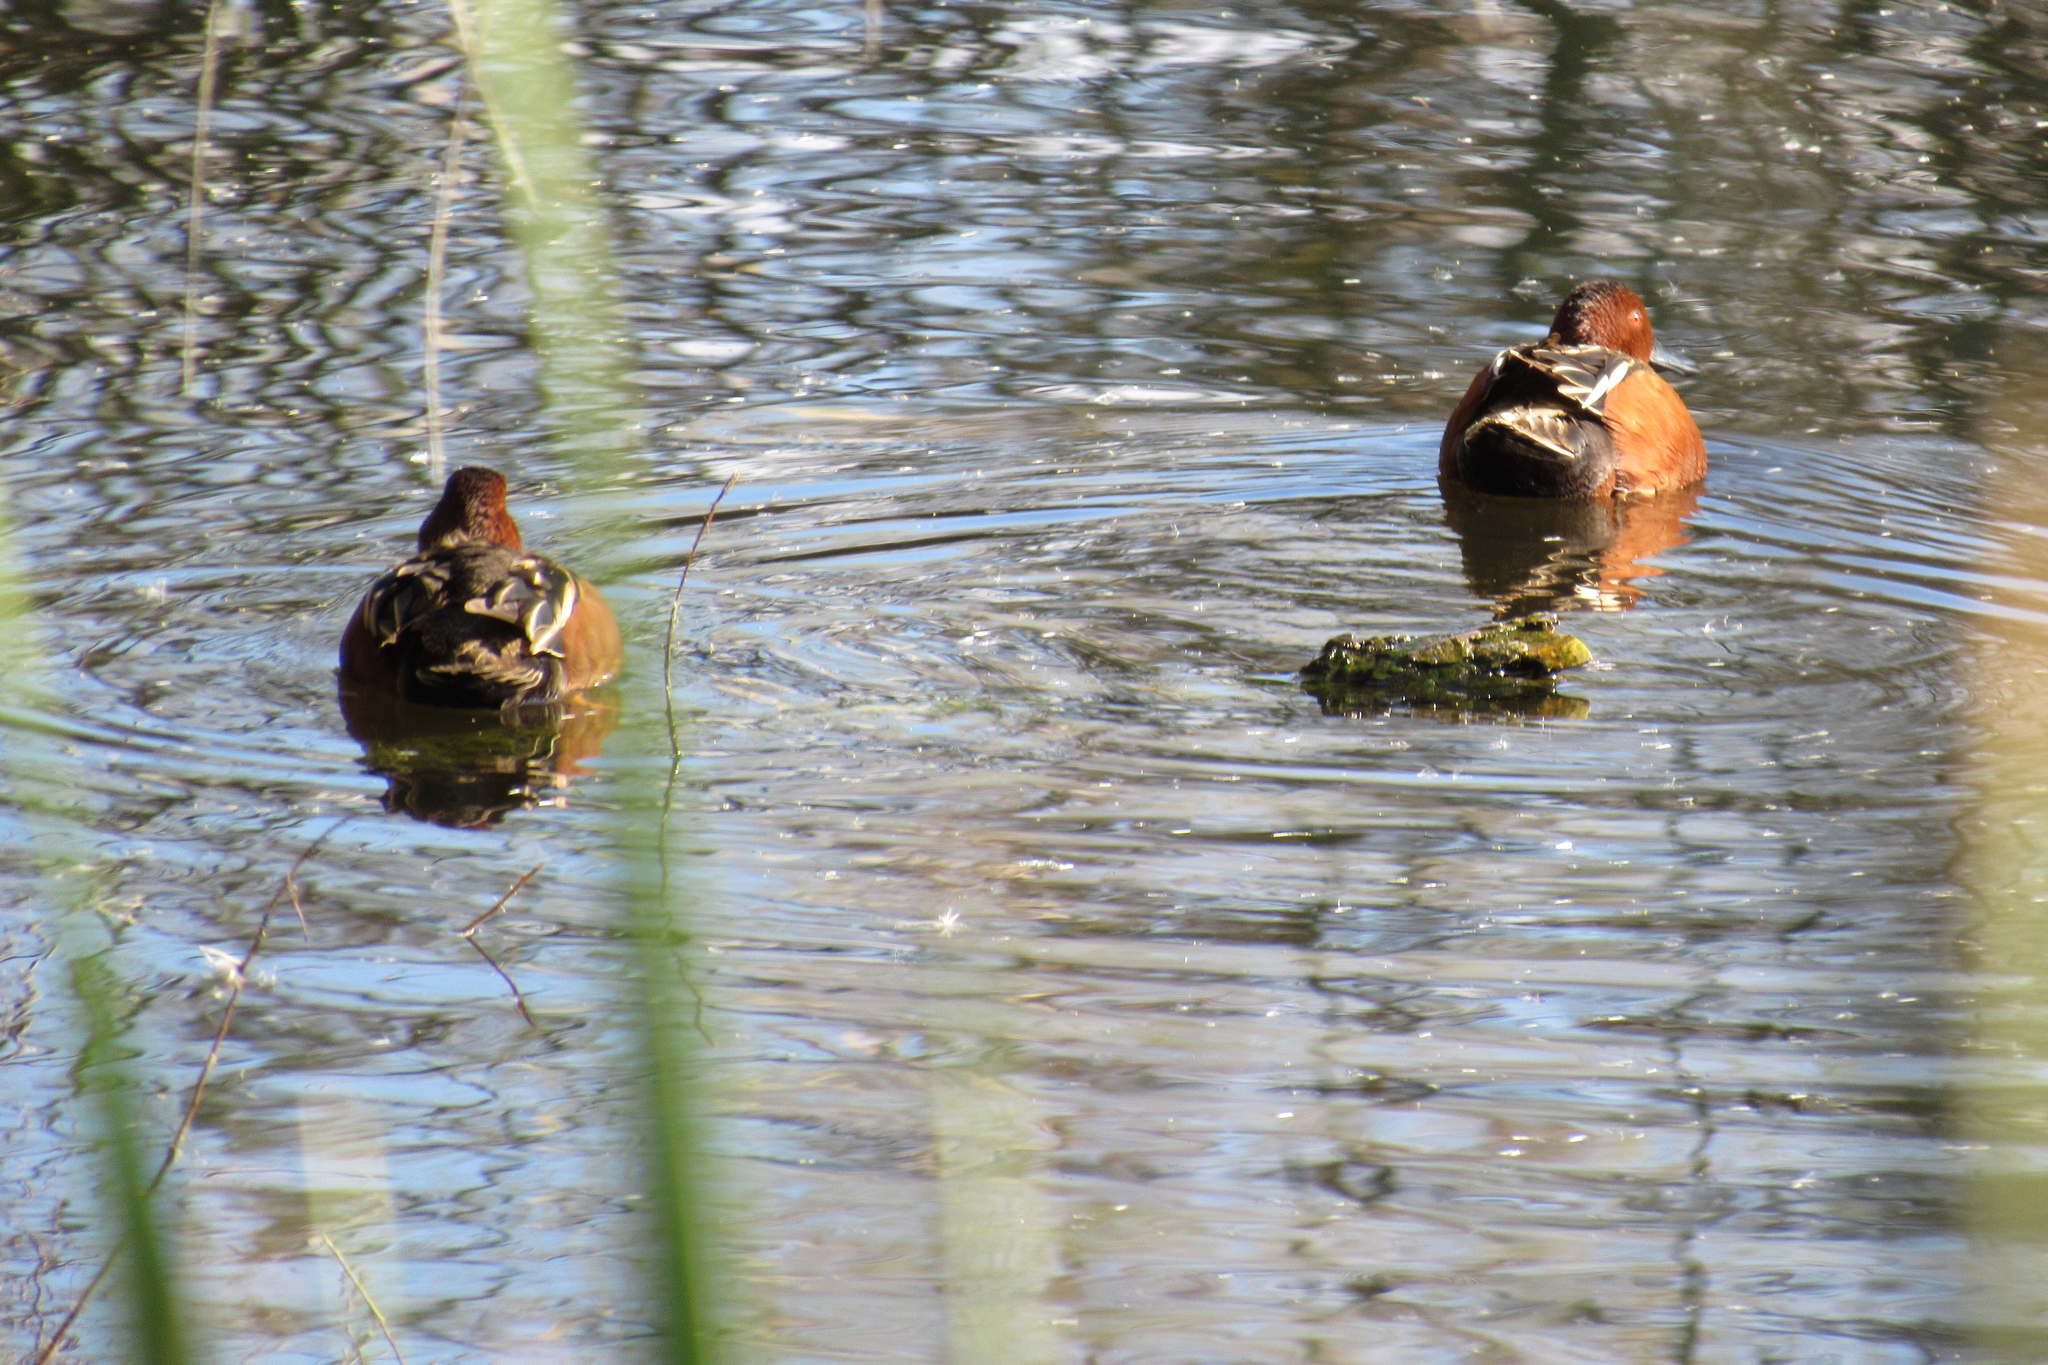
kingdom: Animalia
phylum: Chordata
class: Aves
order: Anseriformes
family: Anatidae
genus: Spatula
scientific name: Spatula cyanoptera
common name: Cinnamon teal
